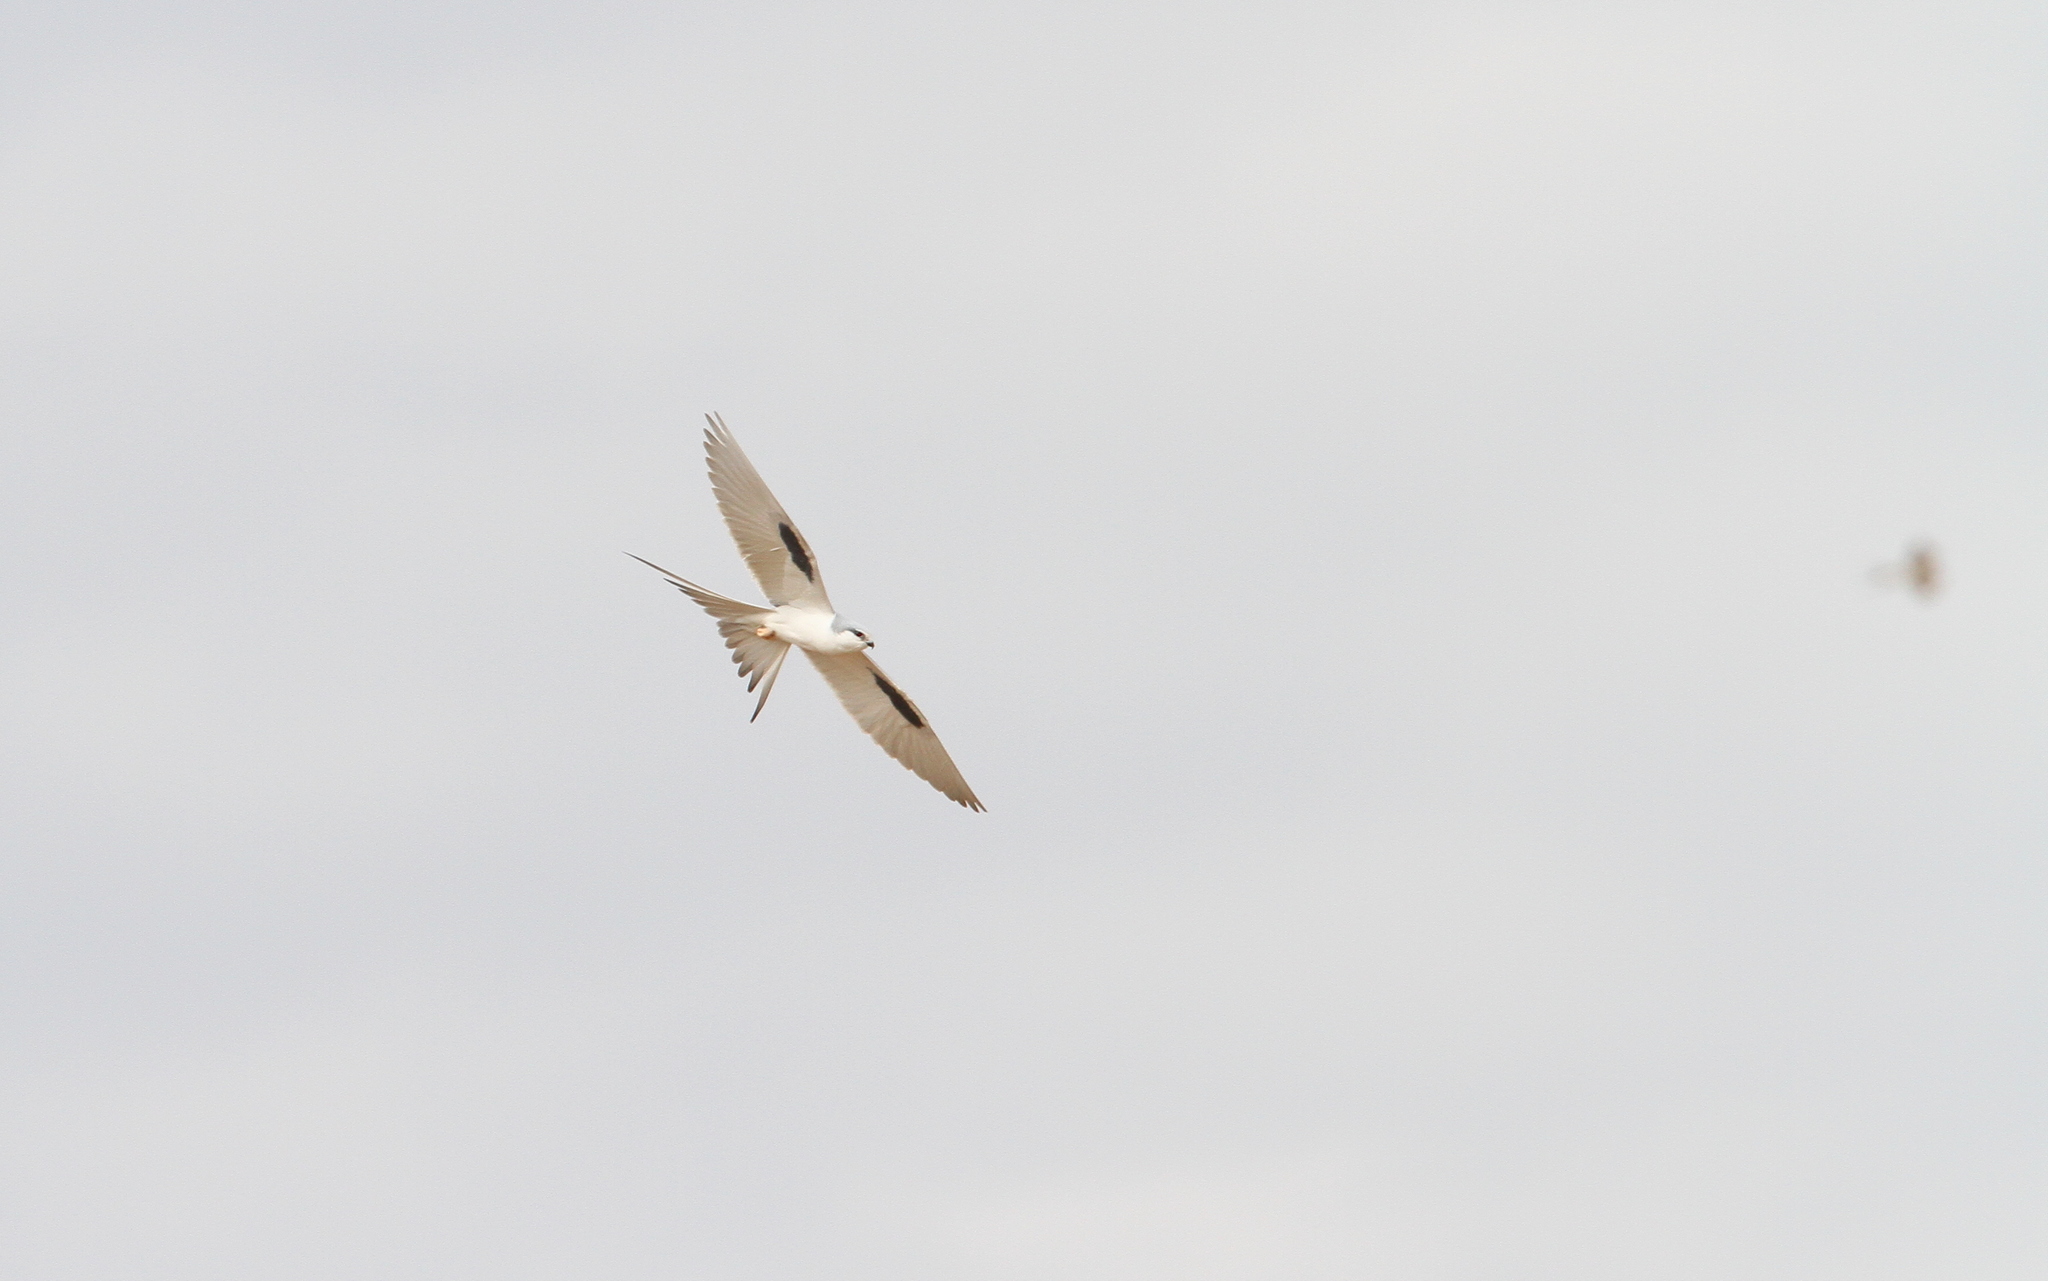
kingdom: Animalia
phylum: Chordata
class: Aves
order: Accipitriformes
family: Accipitridae
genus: Chelictinia
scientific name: Chelictinia riocourii
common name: Scissor-tailed kite
